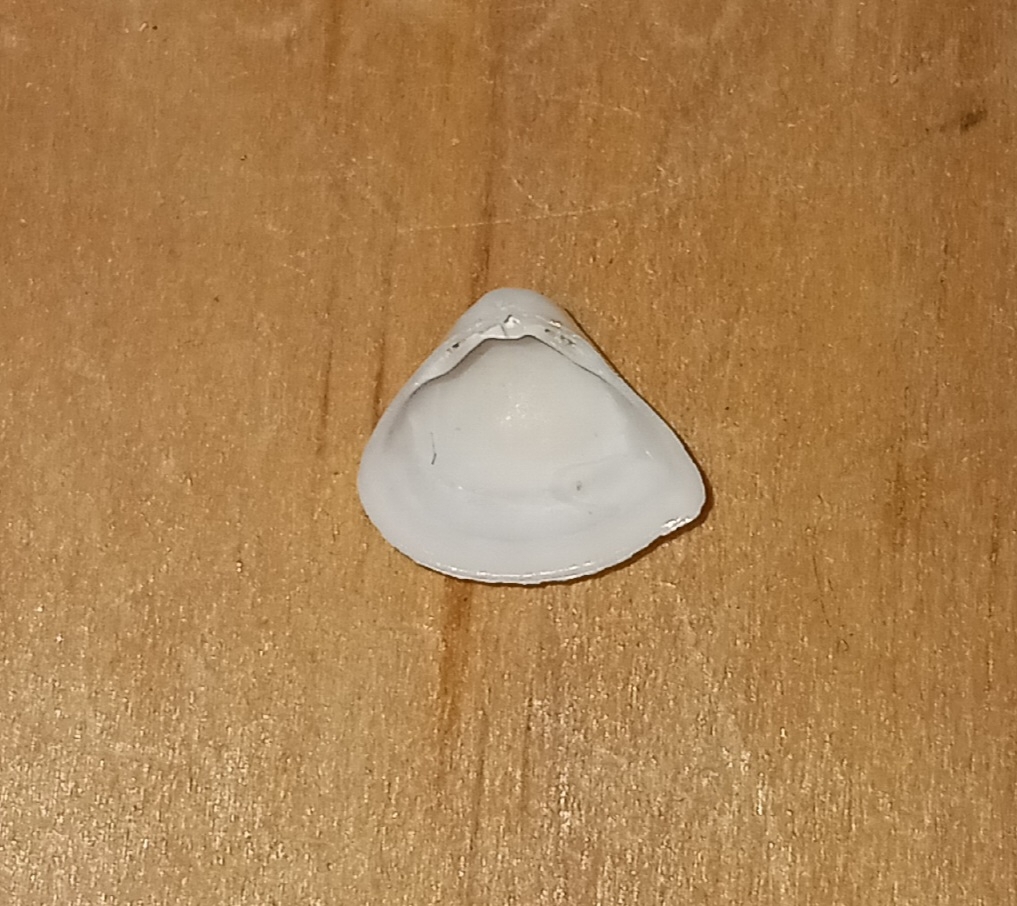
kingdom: Animalia
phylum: Mollusca
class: Bivalvia
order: Venerida
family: Mactridae
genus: Mulinia
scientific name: Mulinia lateralis
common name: Dwarf surfclam
